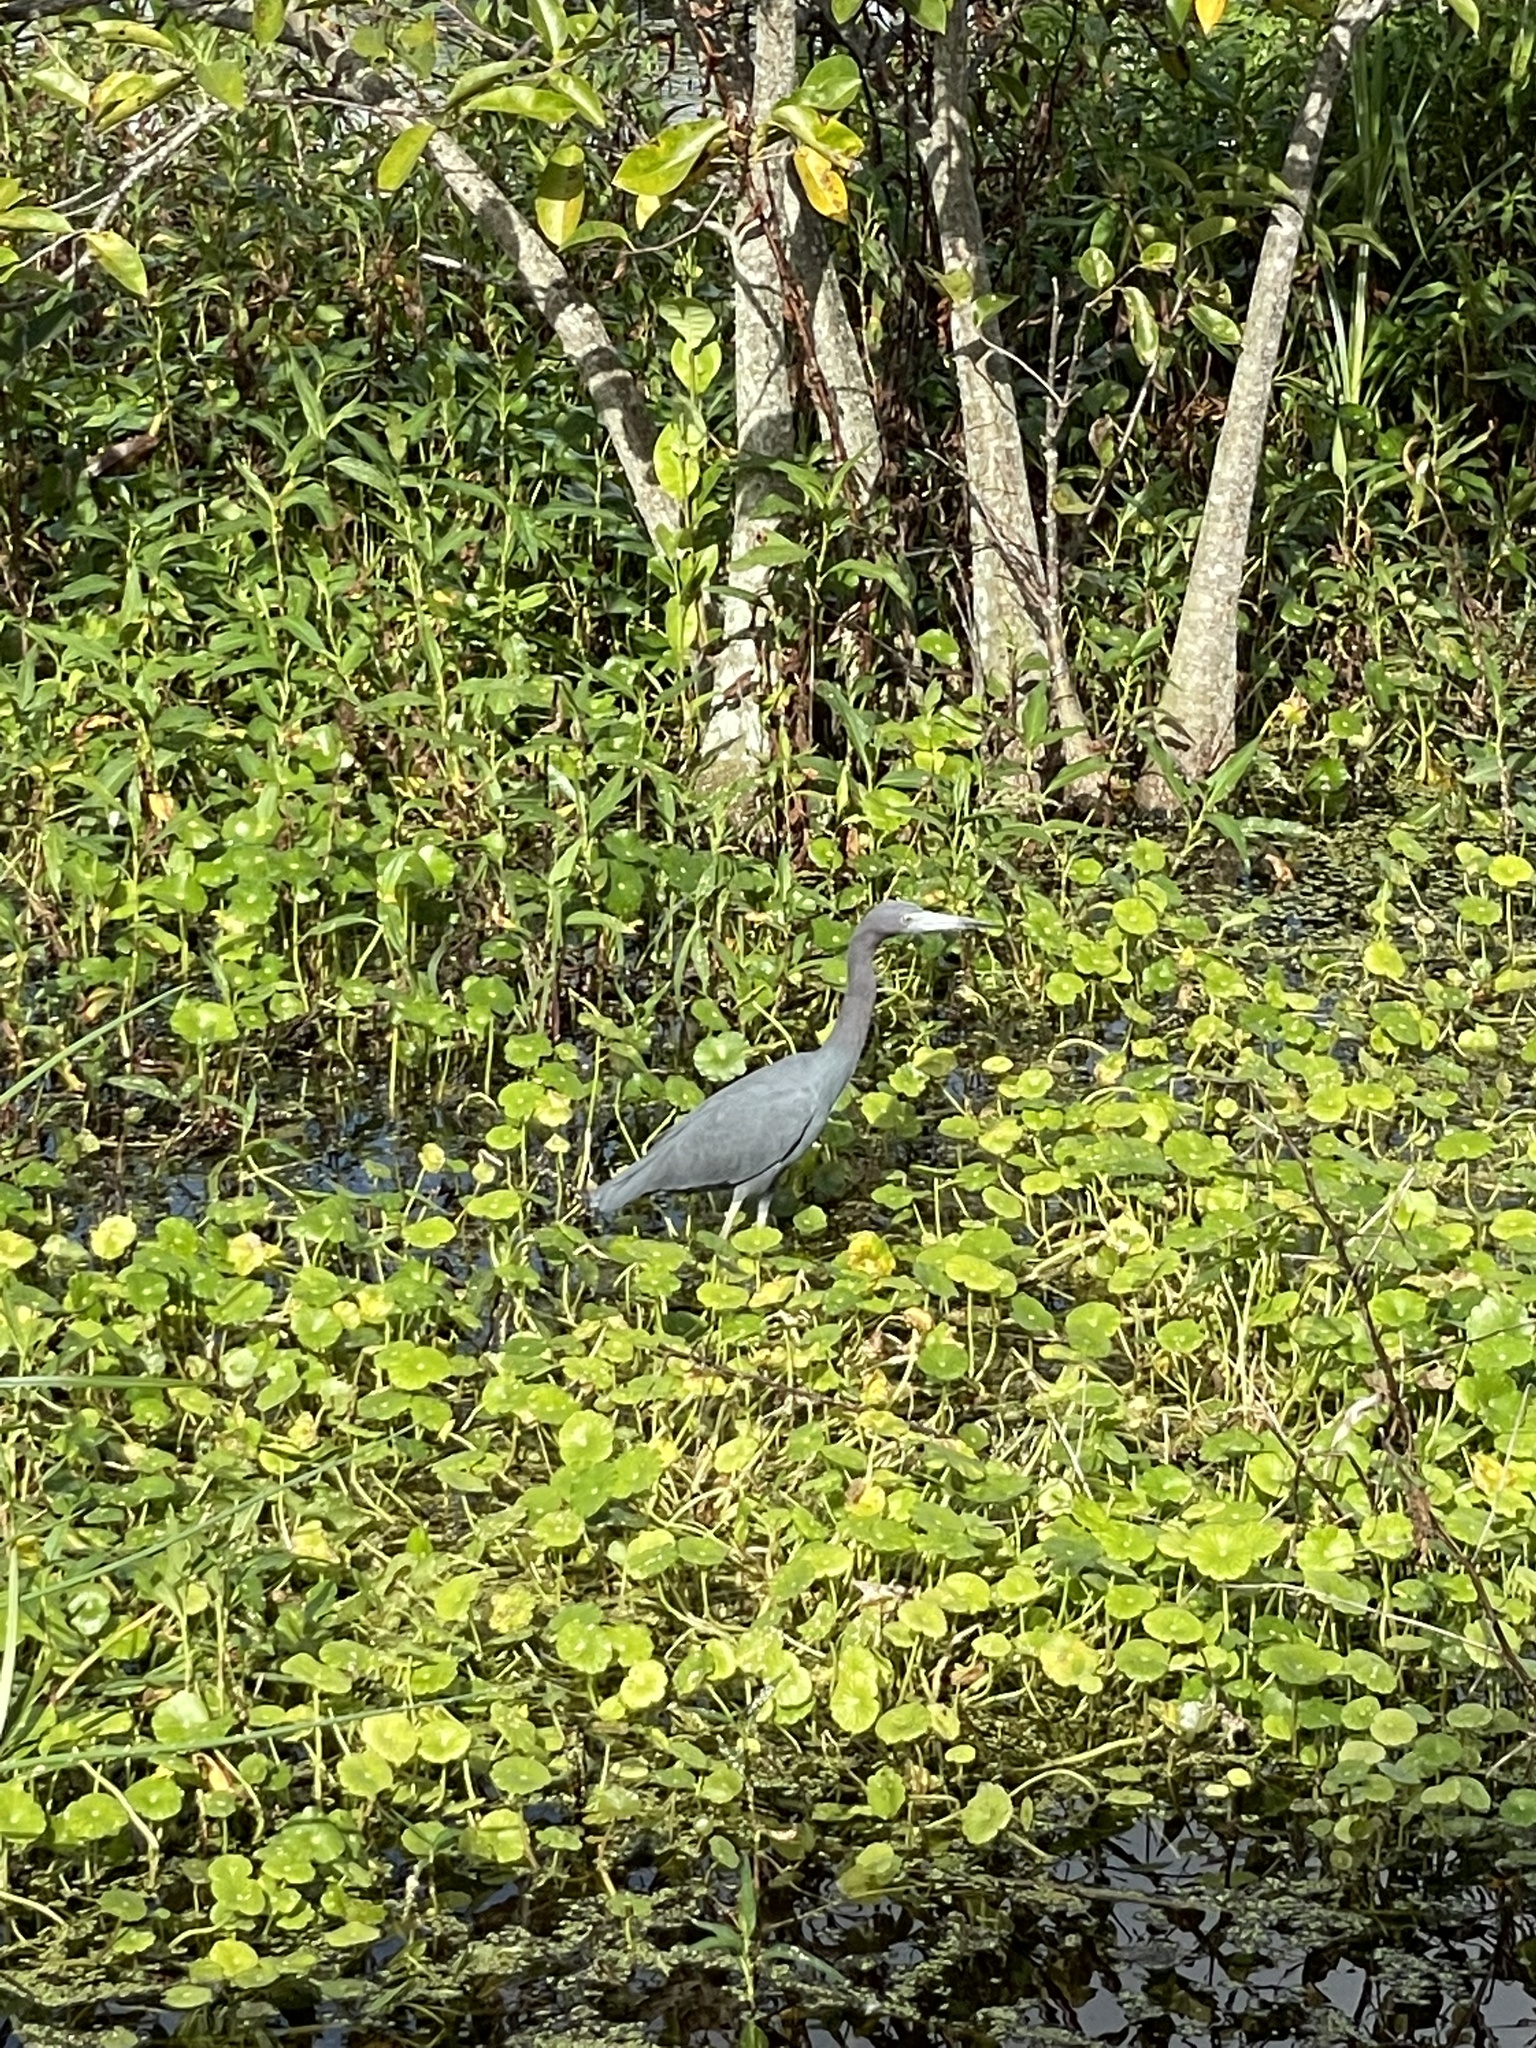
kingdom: Animalia
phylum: Chordata
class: Aves
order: Pelecaniformes
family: Ardeidae
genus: Egretta
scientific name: Egretta caerulea
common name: Little blue heron
